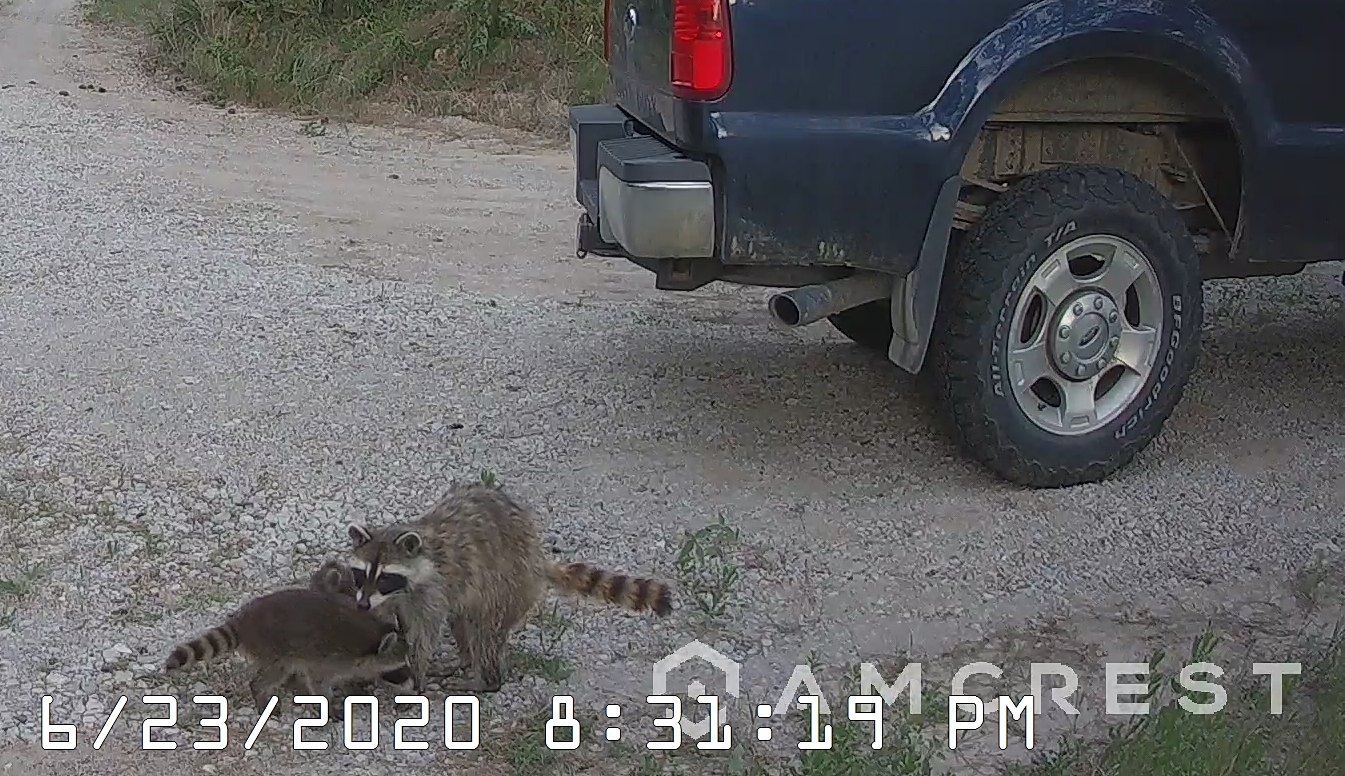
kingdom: Animalia
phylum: Chordata
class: Mammalia
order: Carnivora
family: Procyonidae
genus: Procyon
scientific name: Procyon lotor
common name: Raccoon
